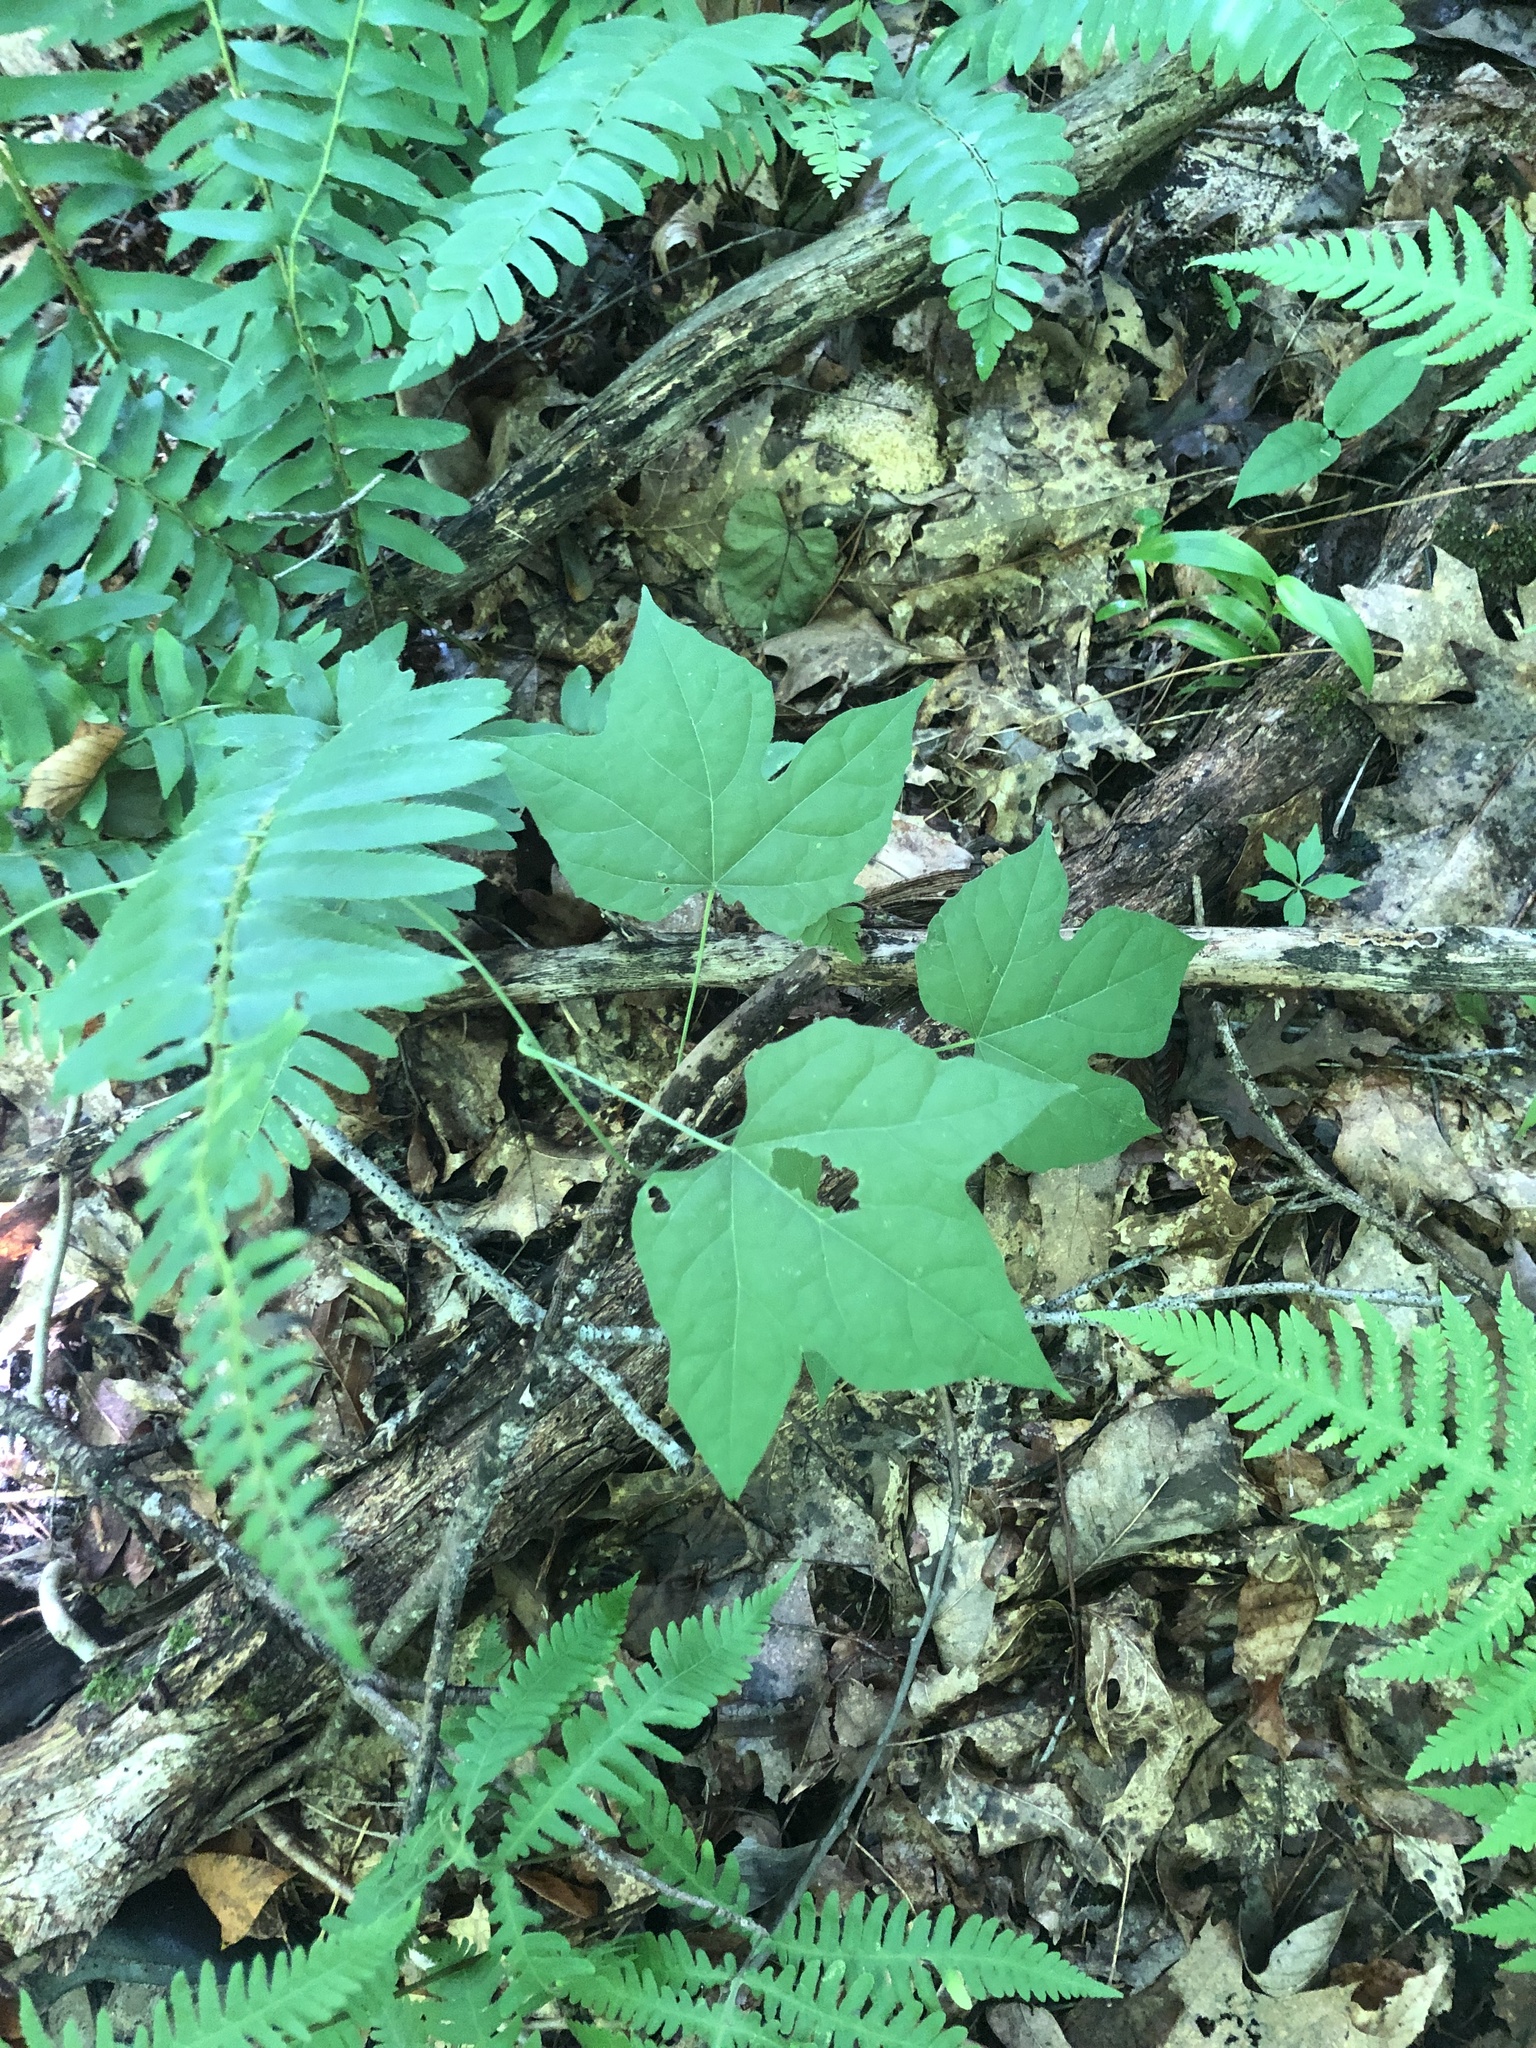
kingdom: Plantae
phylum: Tracheophyta
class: Magnoliopsida
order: Ranunculales
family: Menispermaceae
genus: Calycocarpum
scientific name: Calycocarpum lyonii
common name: Cupseed
